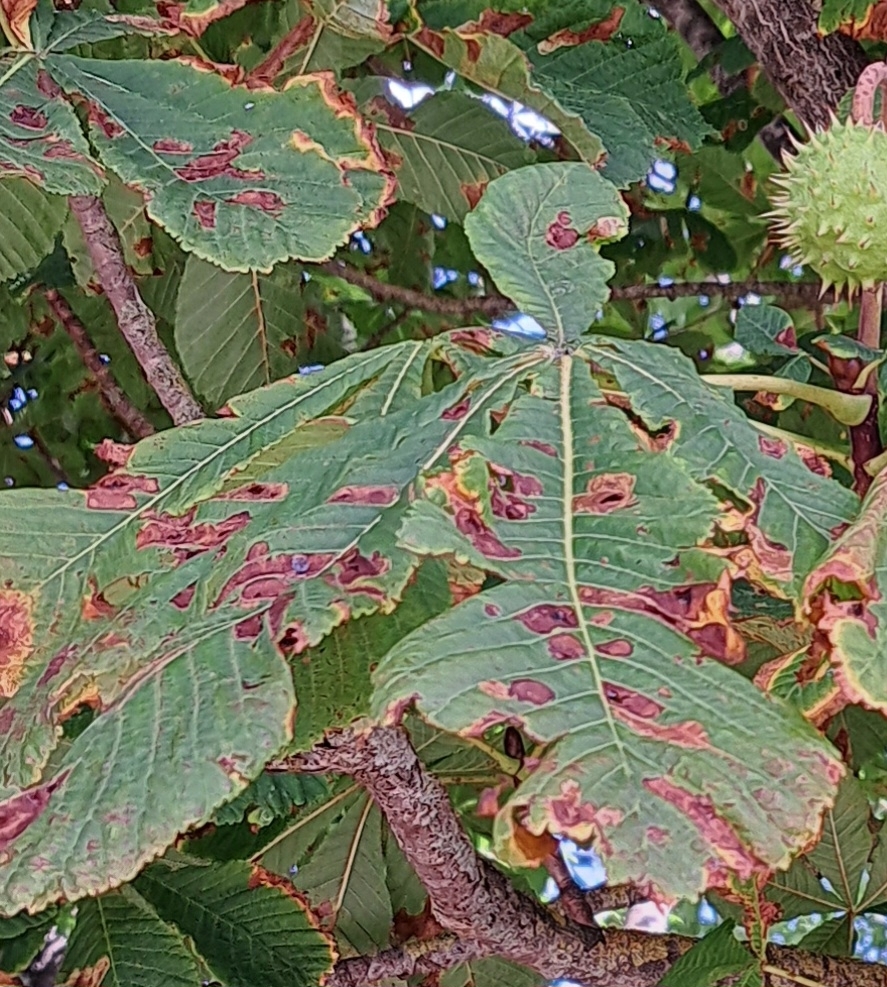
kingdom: Animalia
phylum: Arthropoda
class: Insecta
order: Lepidoptera
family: Gracillariidae
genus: Cameraria
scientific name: Cameraria ohridella
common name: Horse-chestnut leaf-miner
